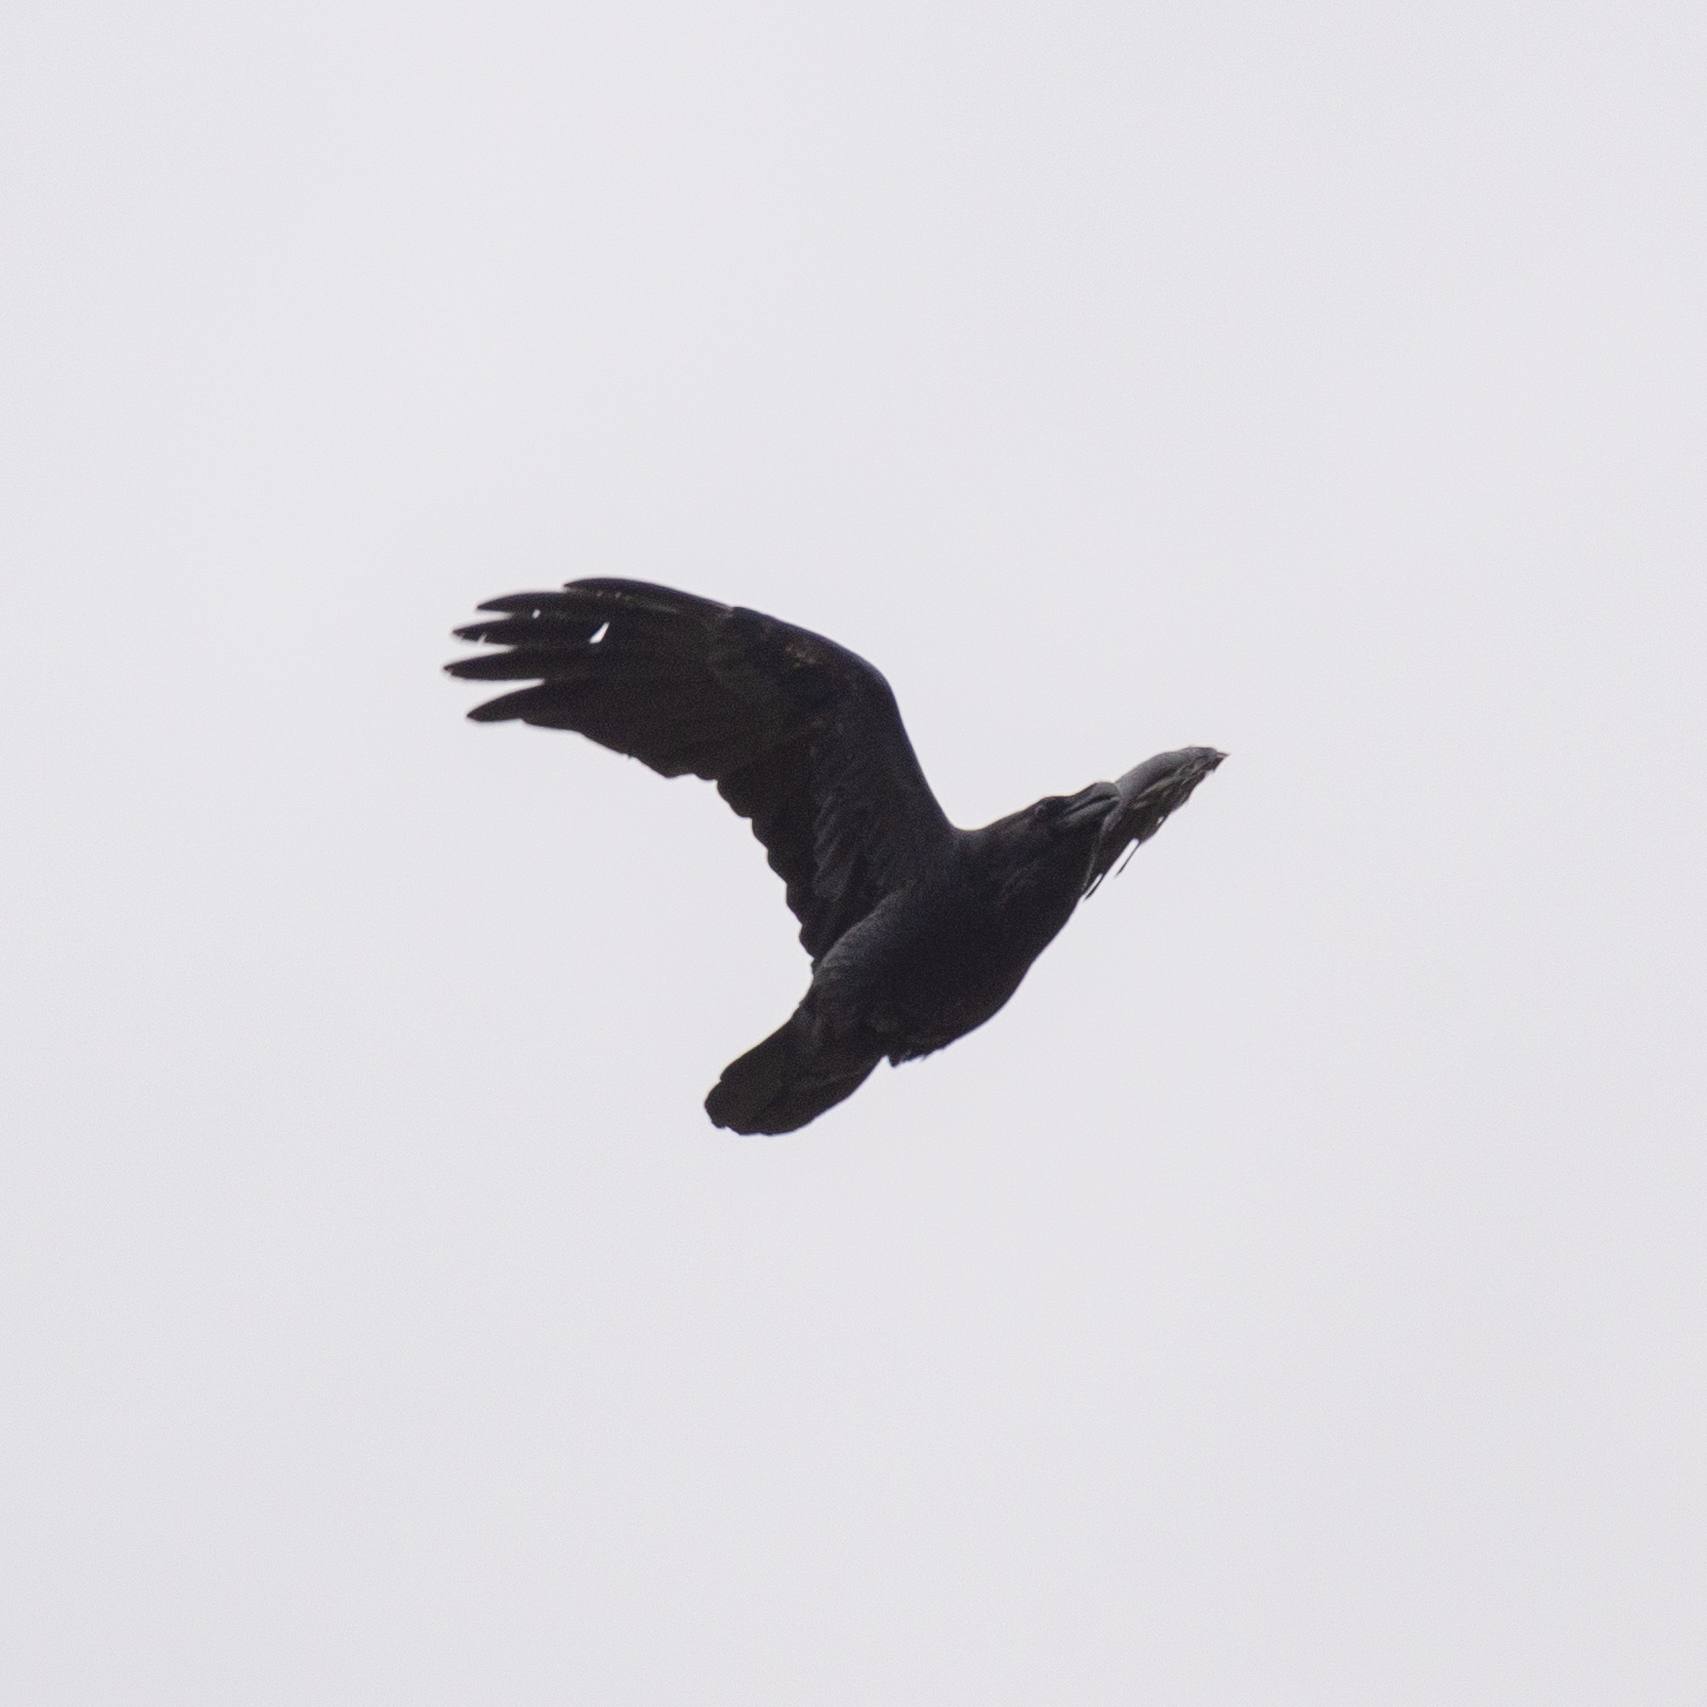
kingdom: Animalia
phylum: Chordata
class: Aves
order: Passeriformes
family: Corvidae
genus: Corvus
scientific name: Corvus corax
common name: Common raven
